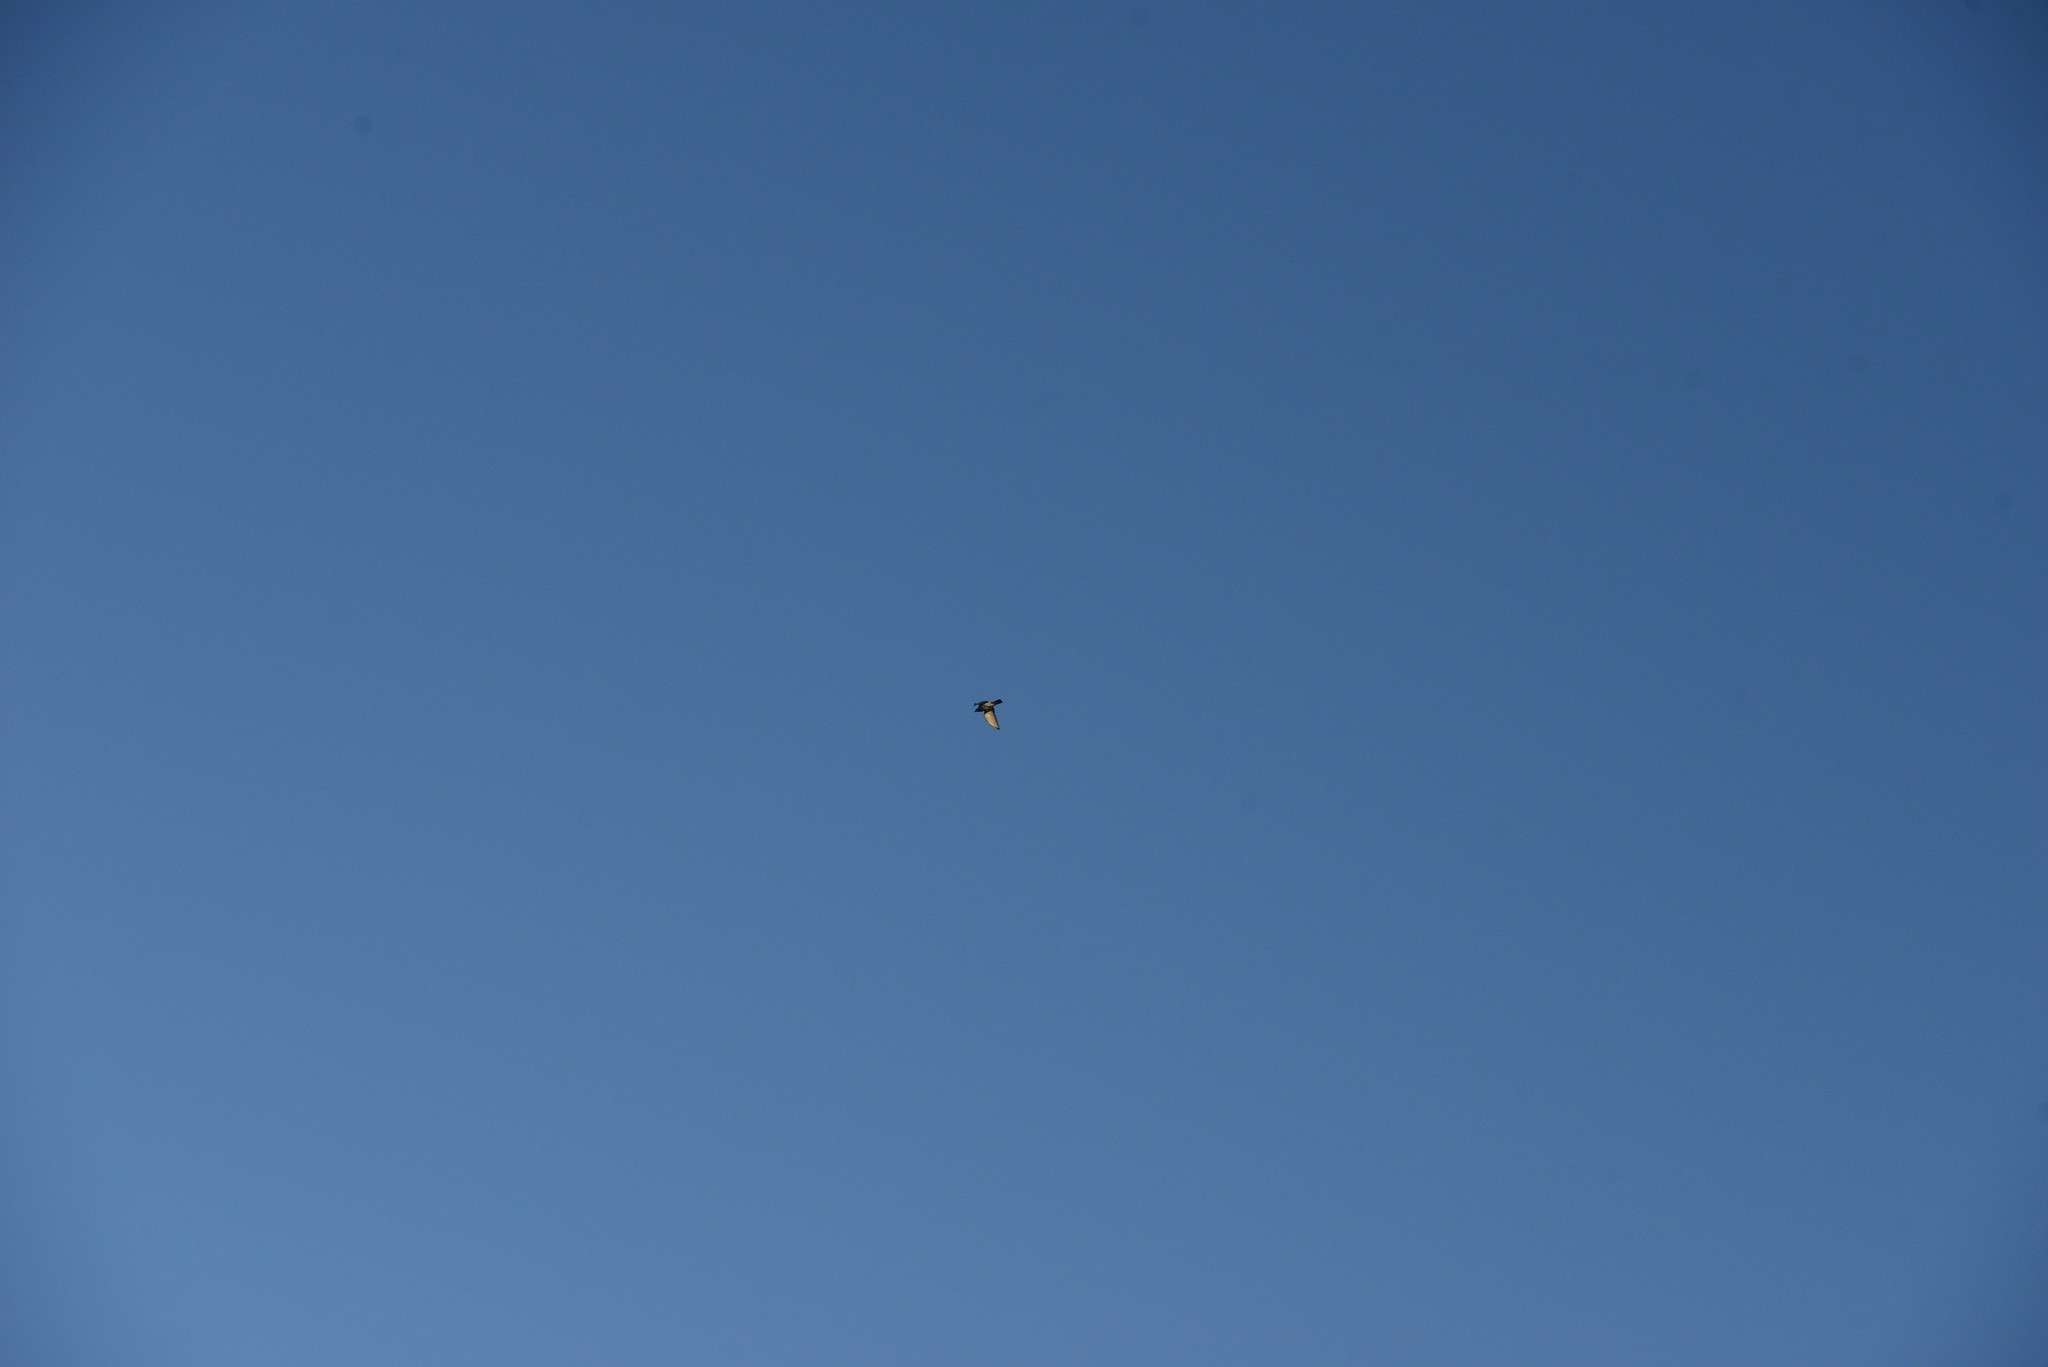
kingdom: Animalia
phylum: Chordata
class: Aves
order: Passeriformes
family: Sturnidae
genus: Sturnus
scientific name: Sturnus vulgaris
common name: Common starling
